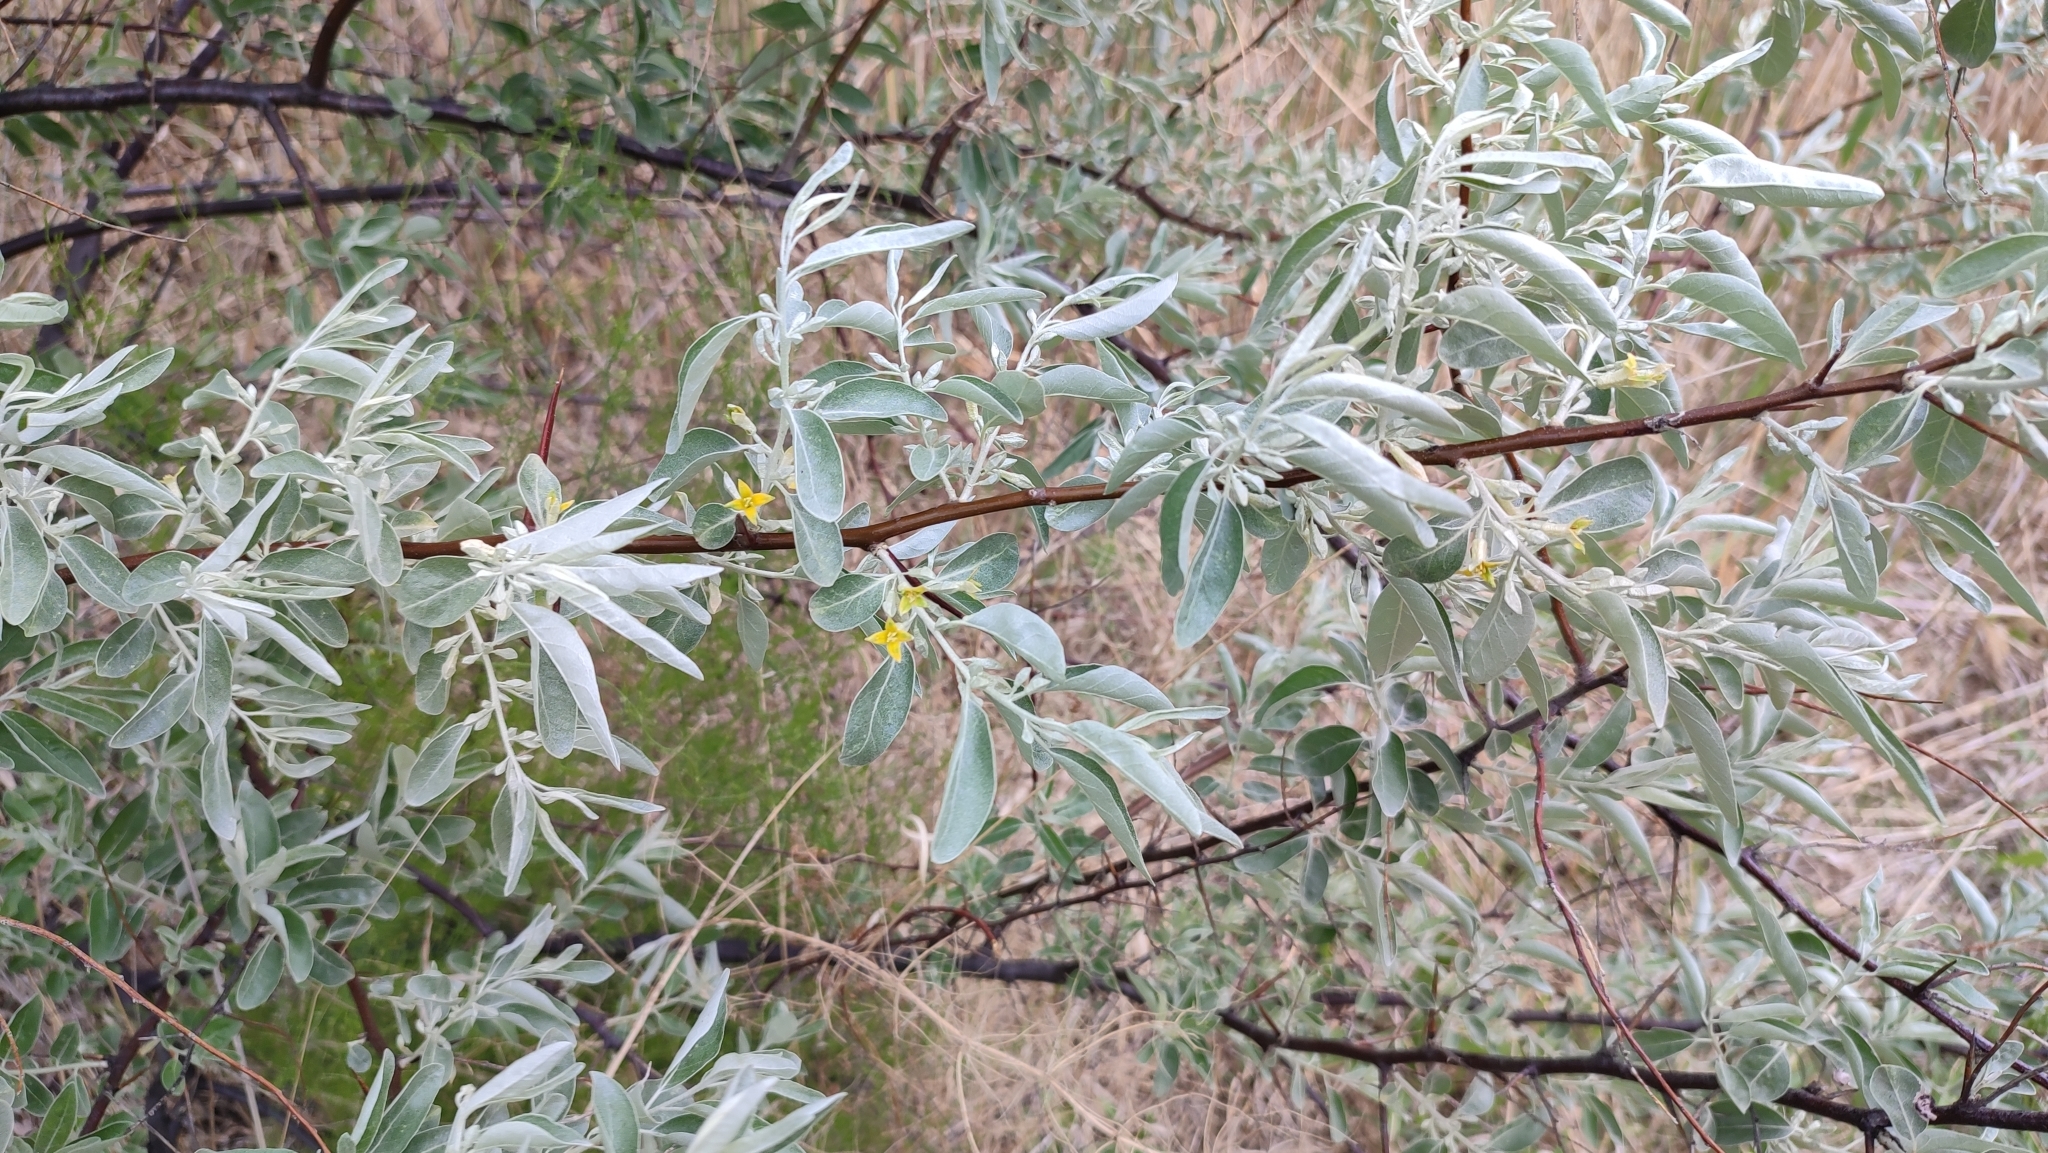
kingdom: Plantae
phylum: Tracheophyta
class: Magnoliopsida
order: Rosales
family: Elaeagnaceae
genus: Elaeagnus
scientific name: Elaeagnus angustifolia
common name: Russian olive
